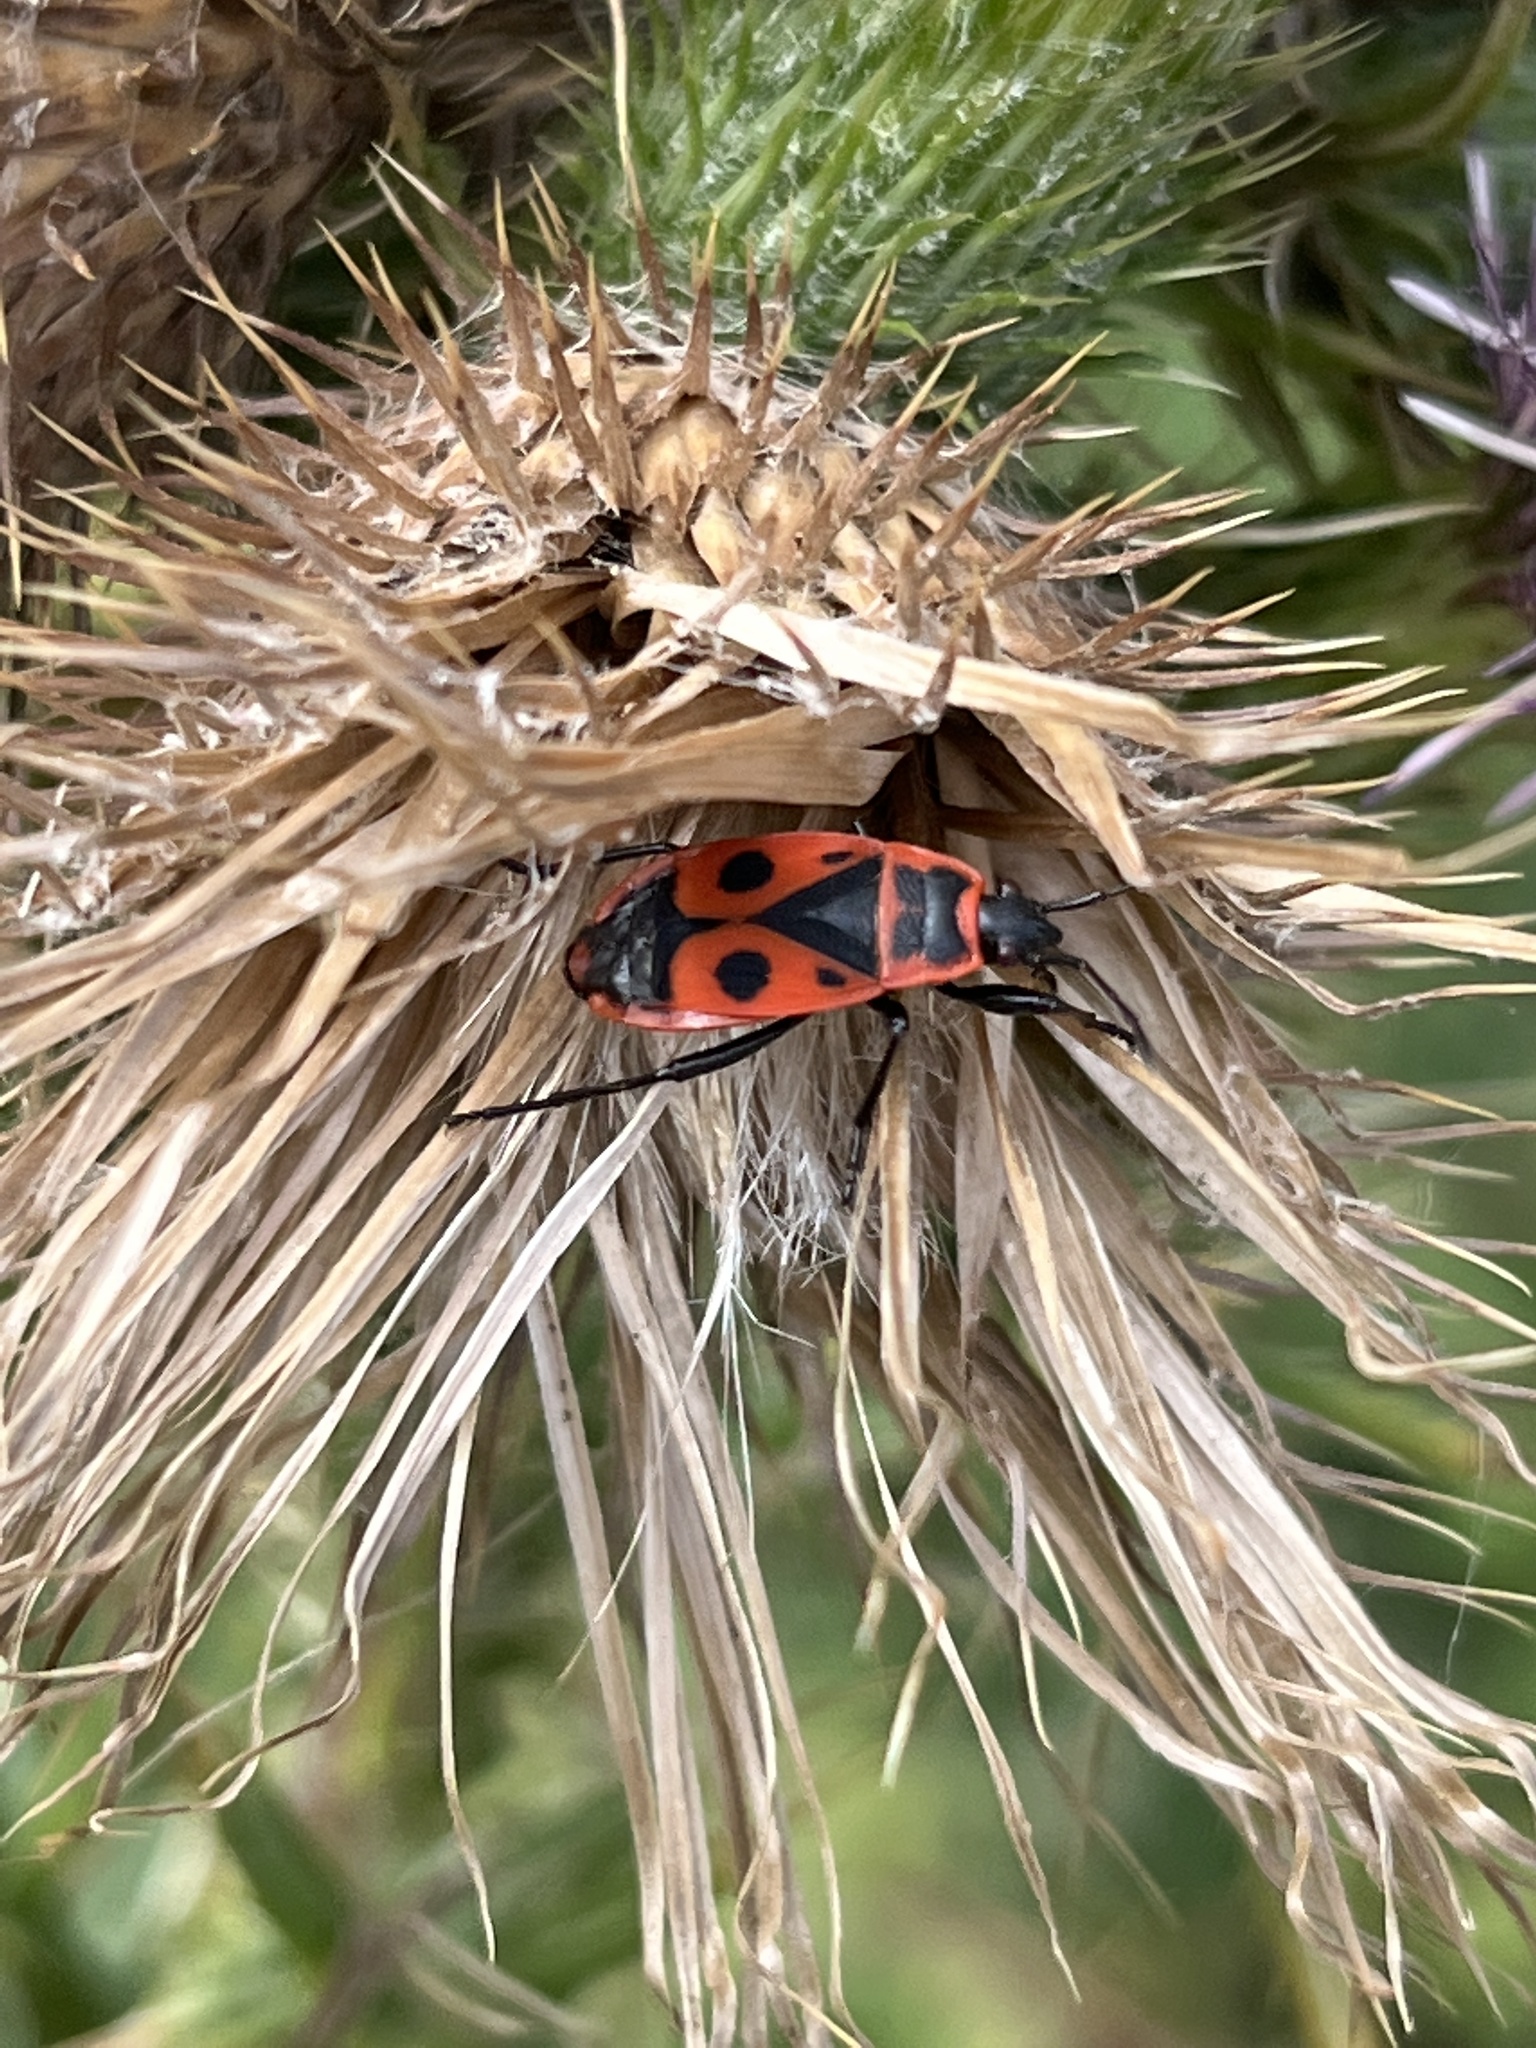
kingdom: Animalia
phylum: Arthropoda
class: Insecta
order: Hemiptera
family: Pyrrhocoridae
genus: Pyrrhocoris
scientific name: Pyrrhocoris apterus
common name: Firebug
